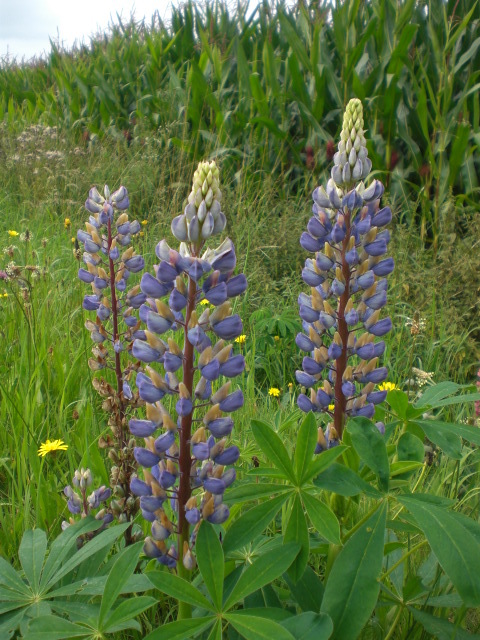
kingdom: Plantae
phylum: Tracheophyta
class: Magnoliopsida
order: Fabales
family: Fabaceae
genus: Lupinus
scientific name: Lupinus polyphyllus
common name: Garden lupin
